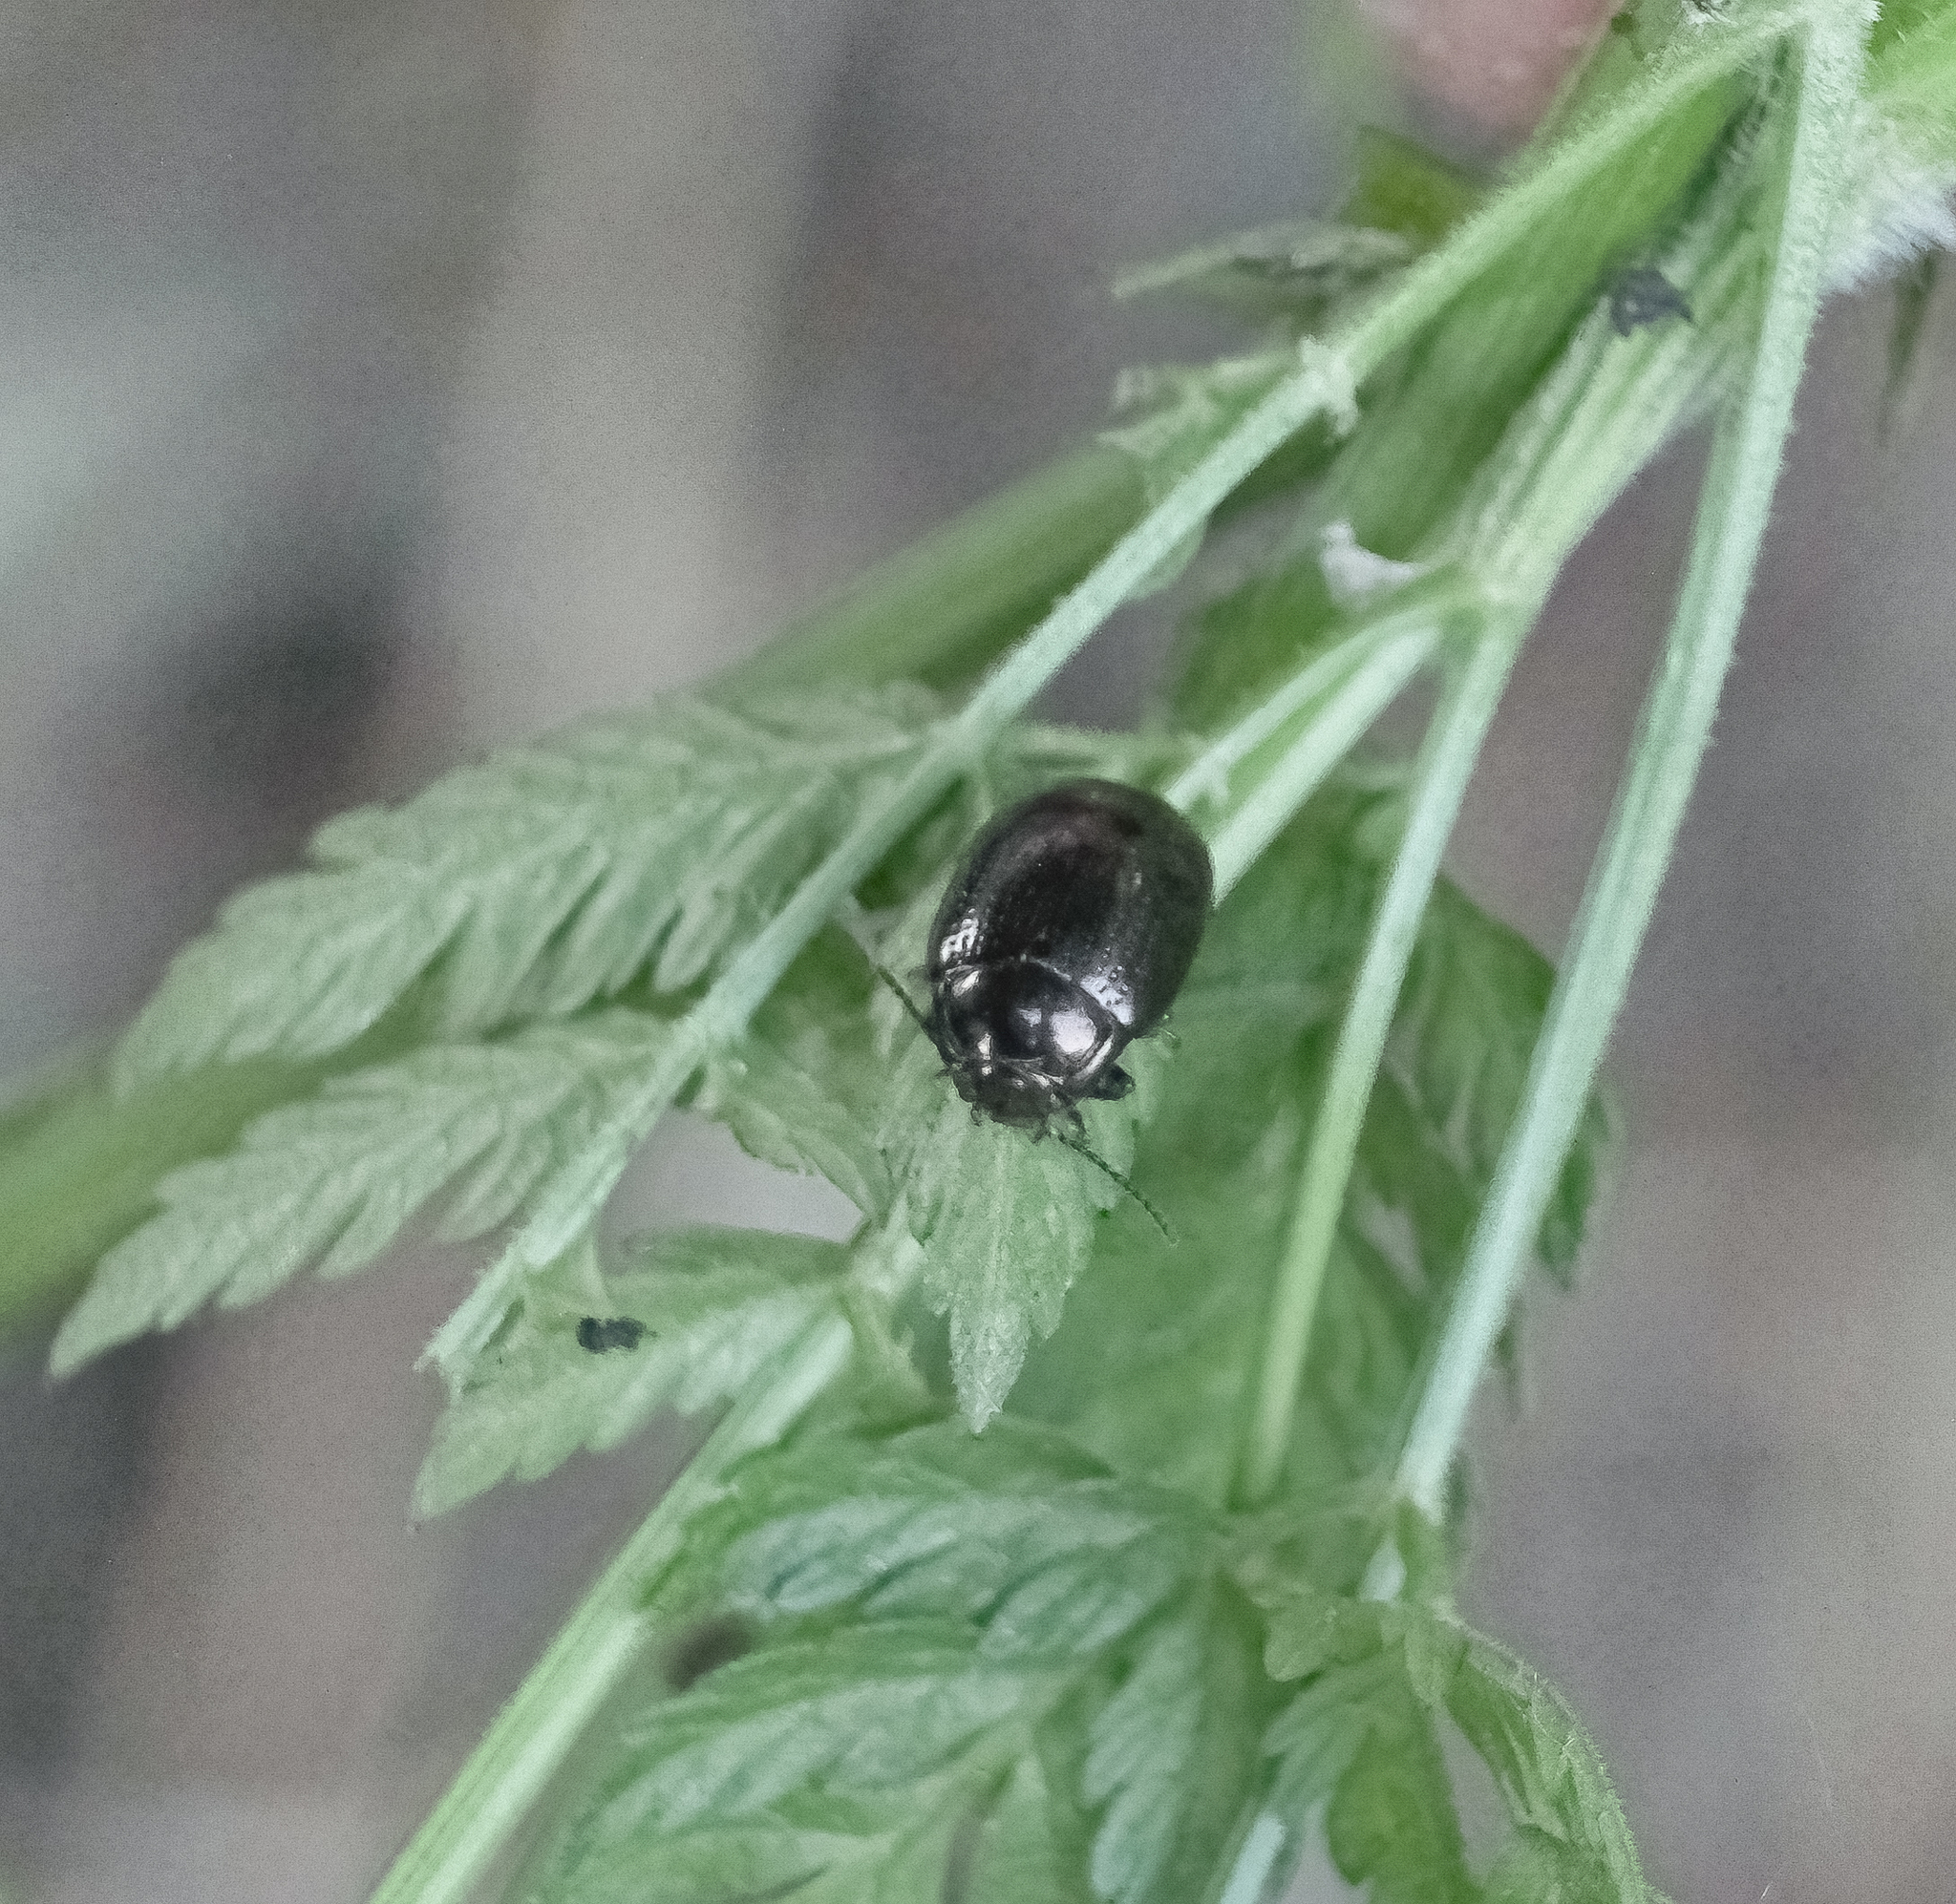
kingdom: Animalia
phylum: Arthropoda
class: Insecta
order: Coleoptera
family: Chrysomelidae
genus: Chrysolina
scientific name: Chrysolina oricalcia
